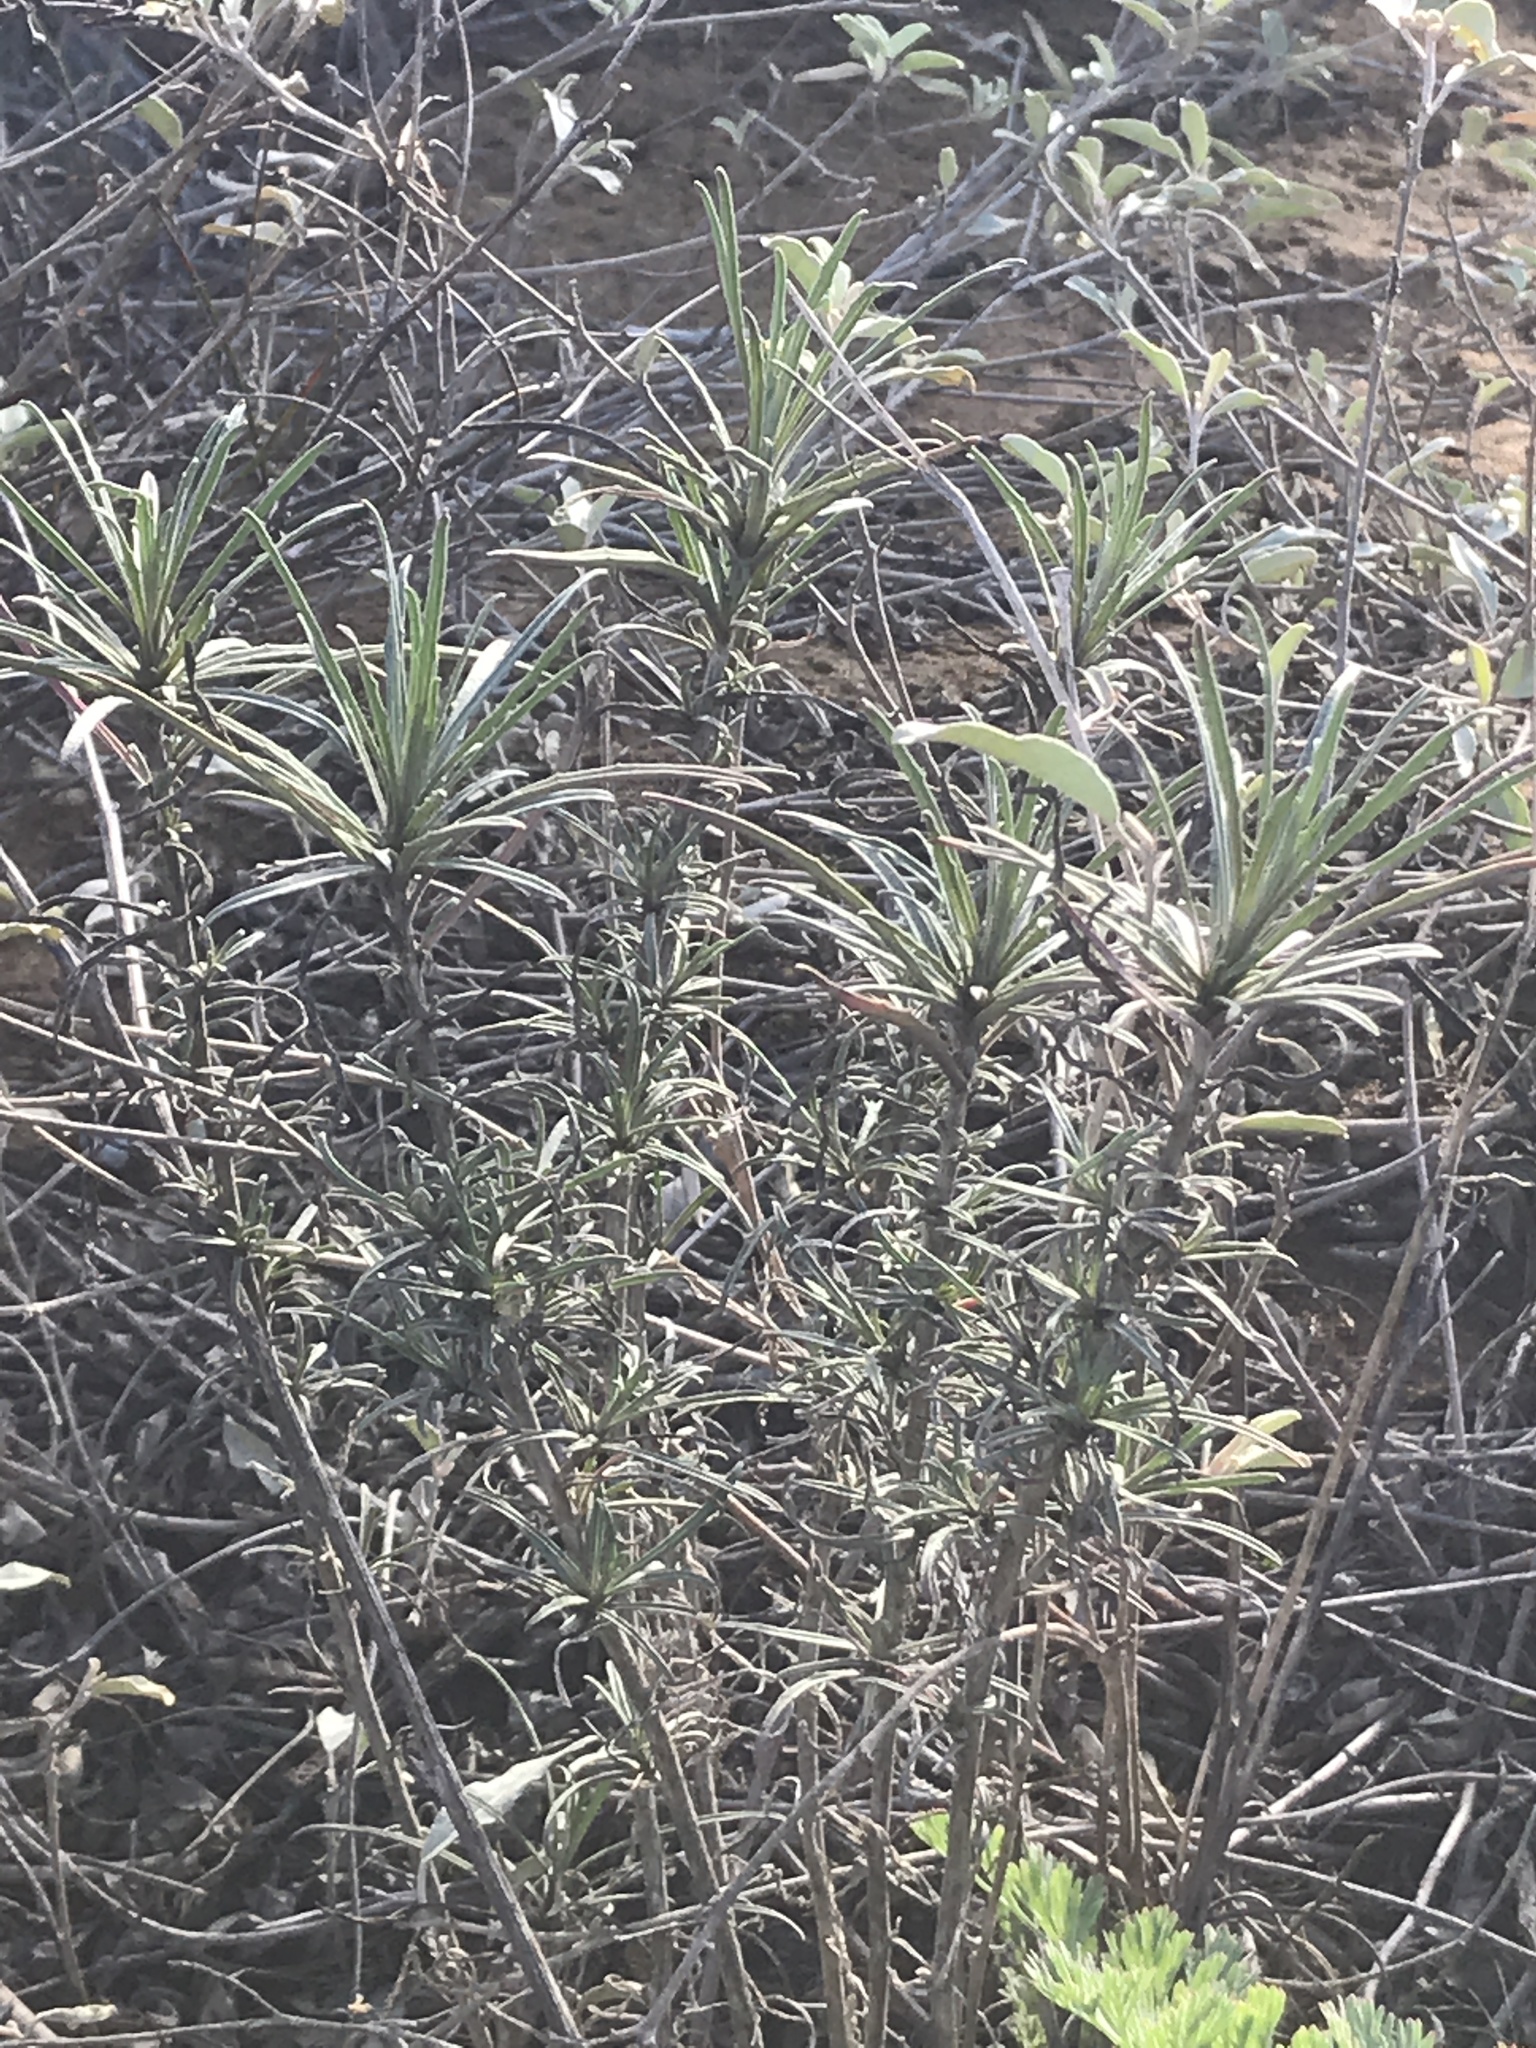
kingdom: Plantae
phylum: Tracheophyta
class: Magnoliopsida
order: Brassicales
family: Brassicaceae
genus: Erysimum
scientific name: Erysimum suffrutescens
